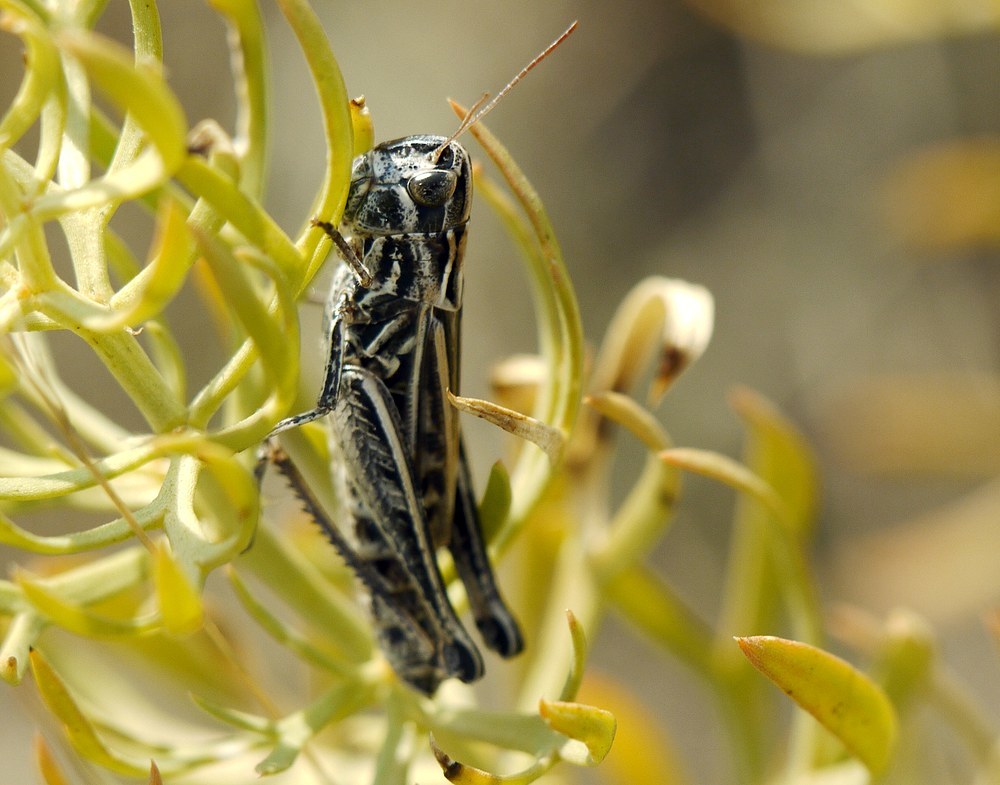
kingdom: Animalia
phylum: Arthropoda
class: Insecta
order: Orthoptera
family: Acrididae
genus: Stenobothrus
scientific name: Stenobothrus nigromaculatus
